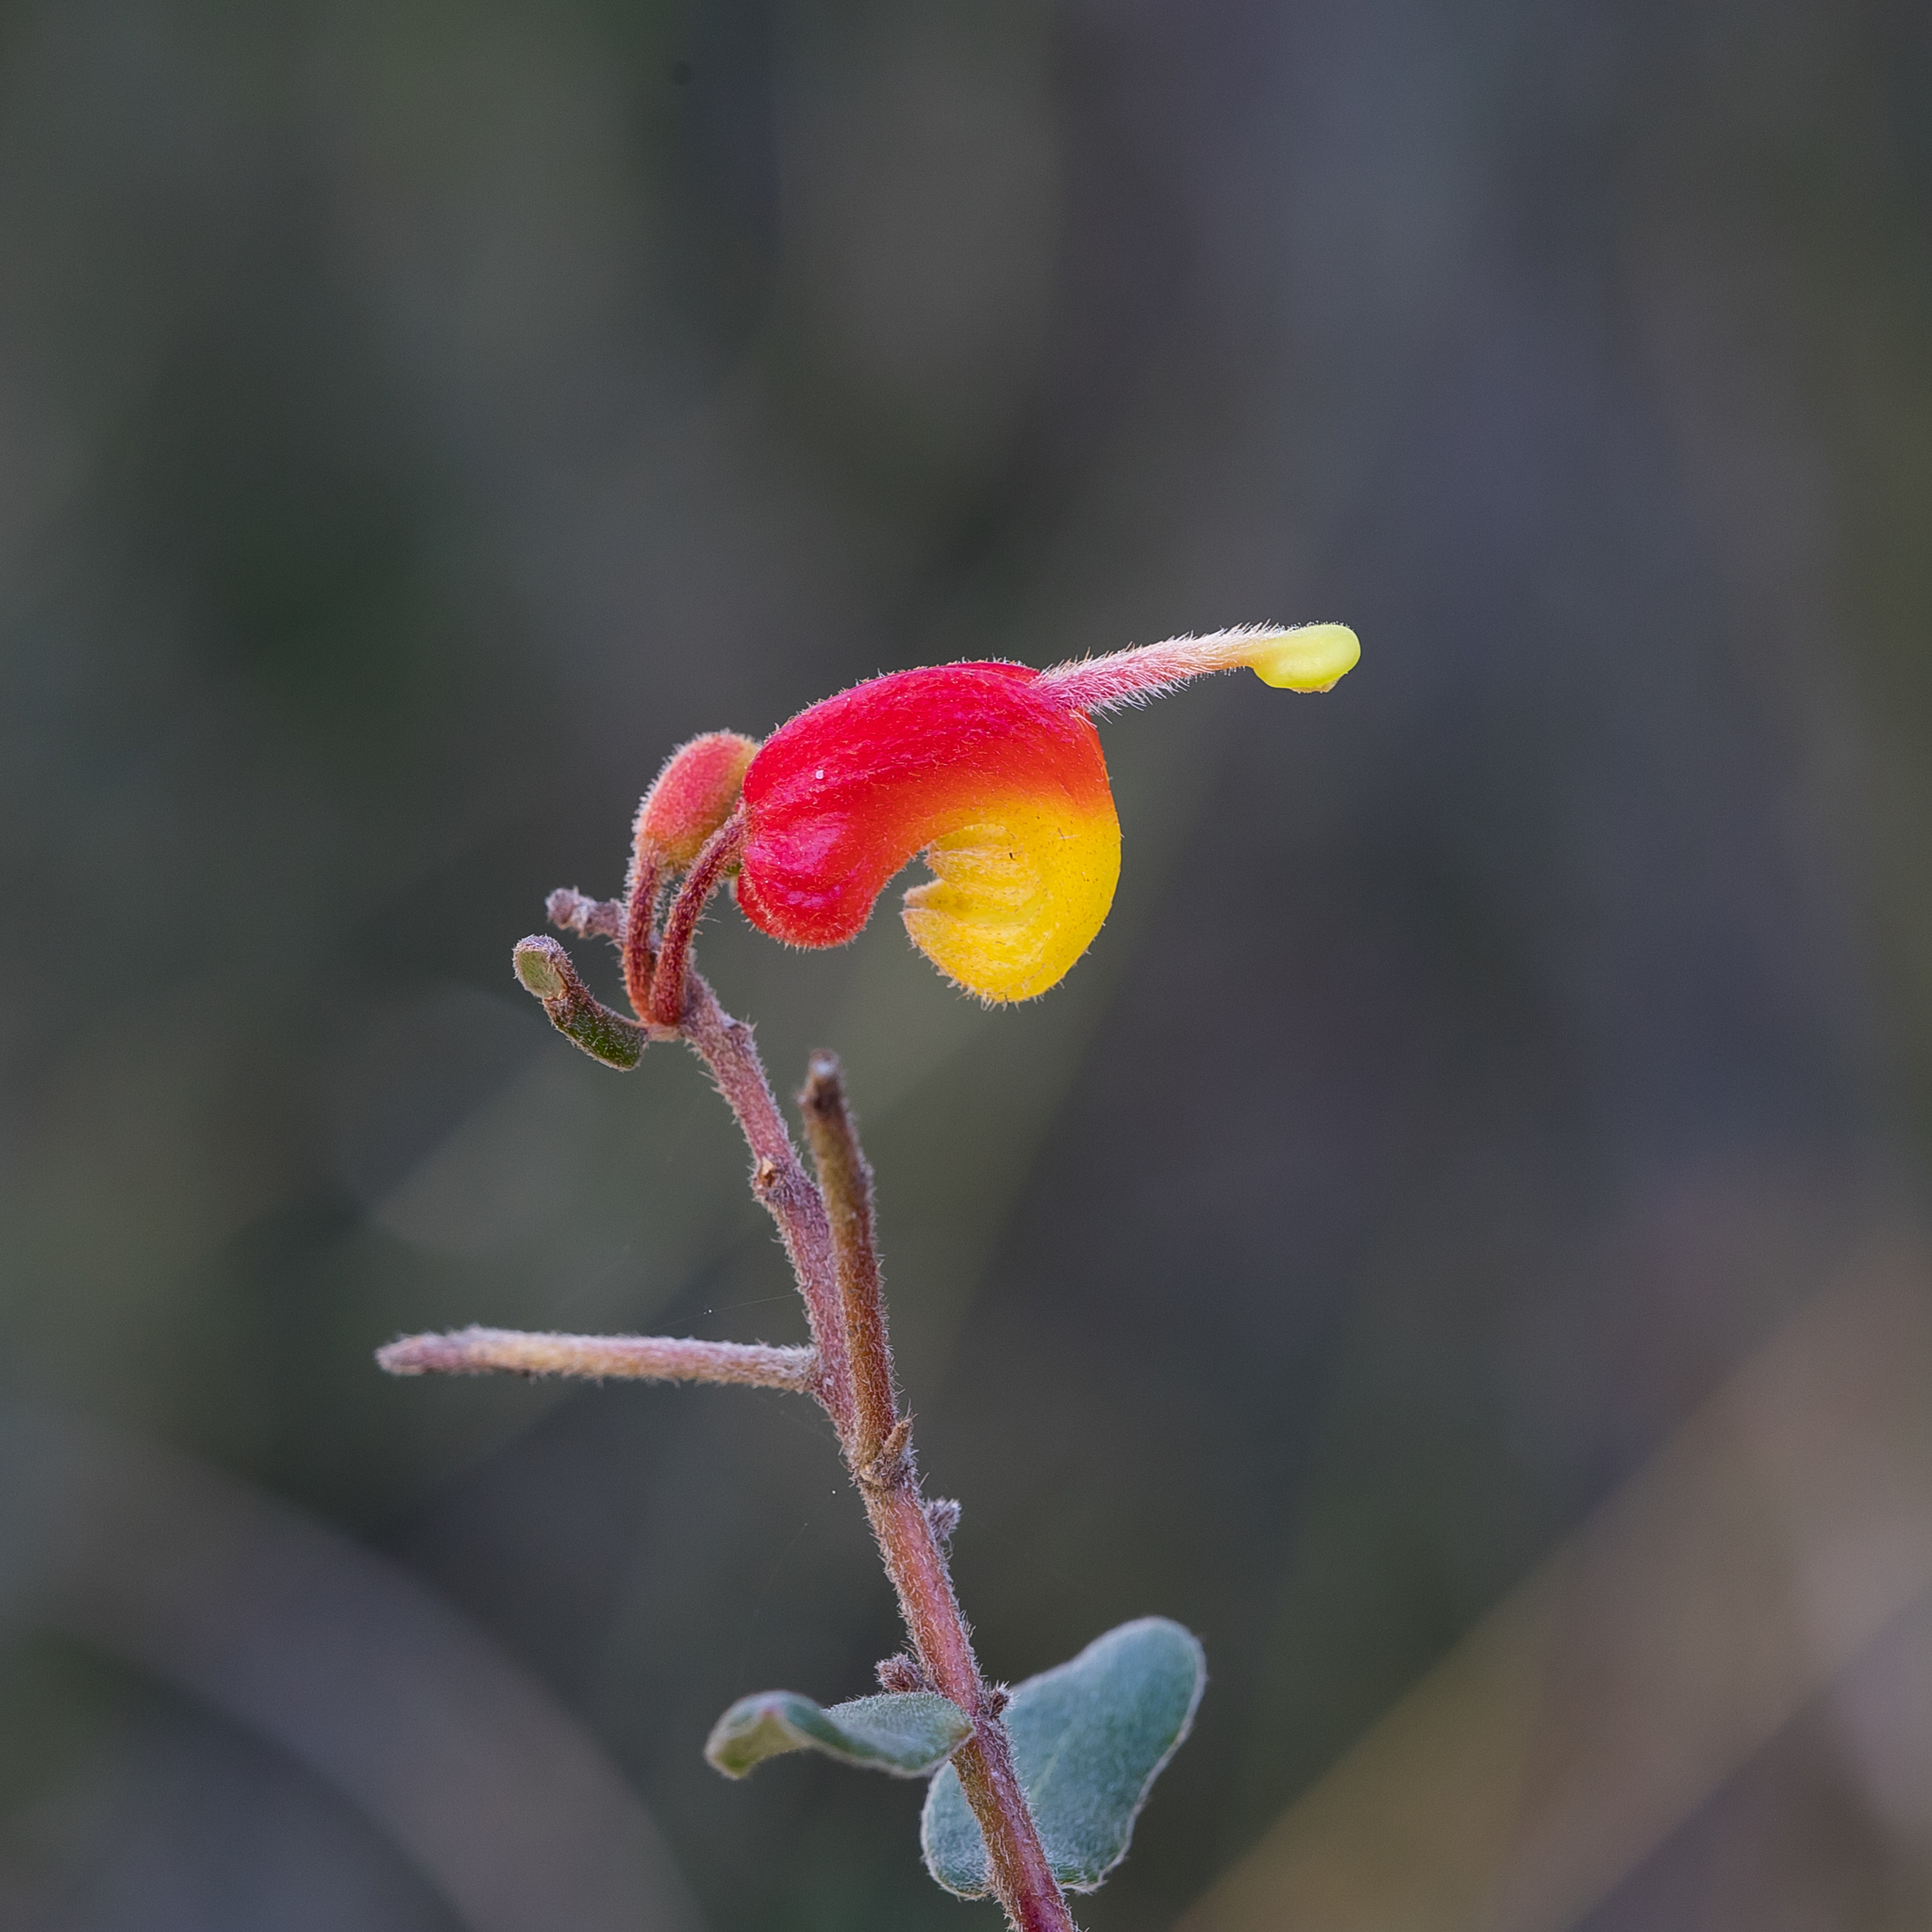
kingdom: Plantae
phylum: Tracheophyta
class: Magnoliopsida
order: Proteales
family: Proteaceae
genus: Grevillea
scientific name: Grevillea alpina
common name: Catclaws grevillea
